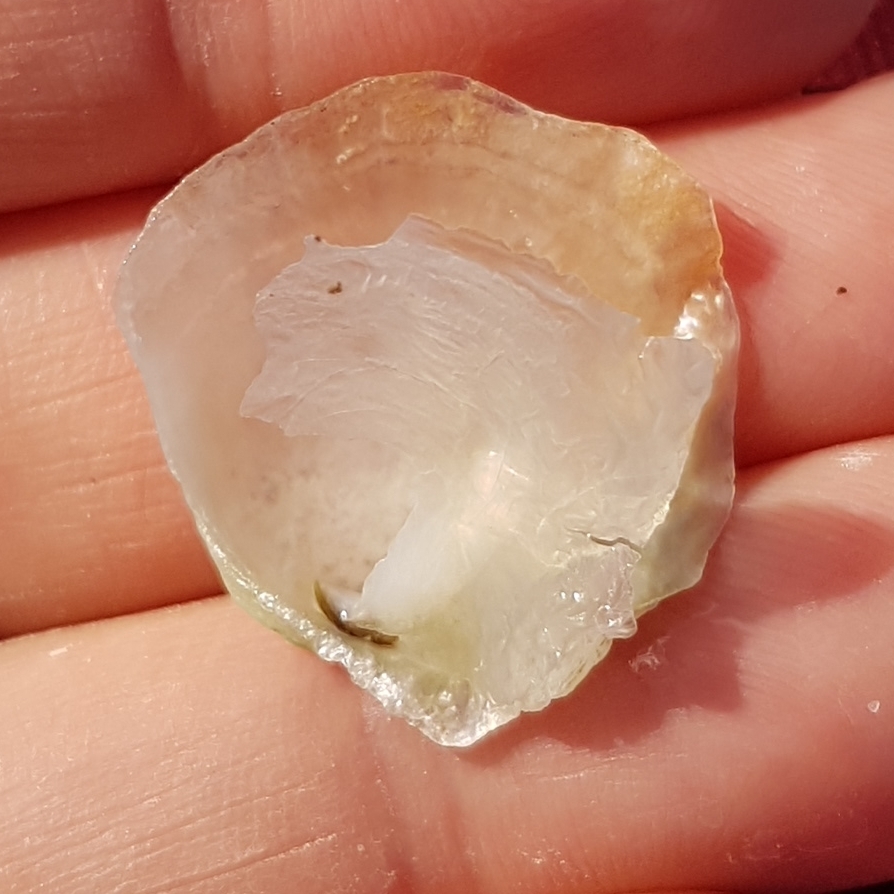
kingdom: Animalia
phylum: Mollusca
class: Bivalvia
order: Pectinida
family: Anomiidae
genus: Anomia
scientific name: Anomia ephippium
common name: Saddle oyster
